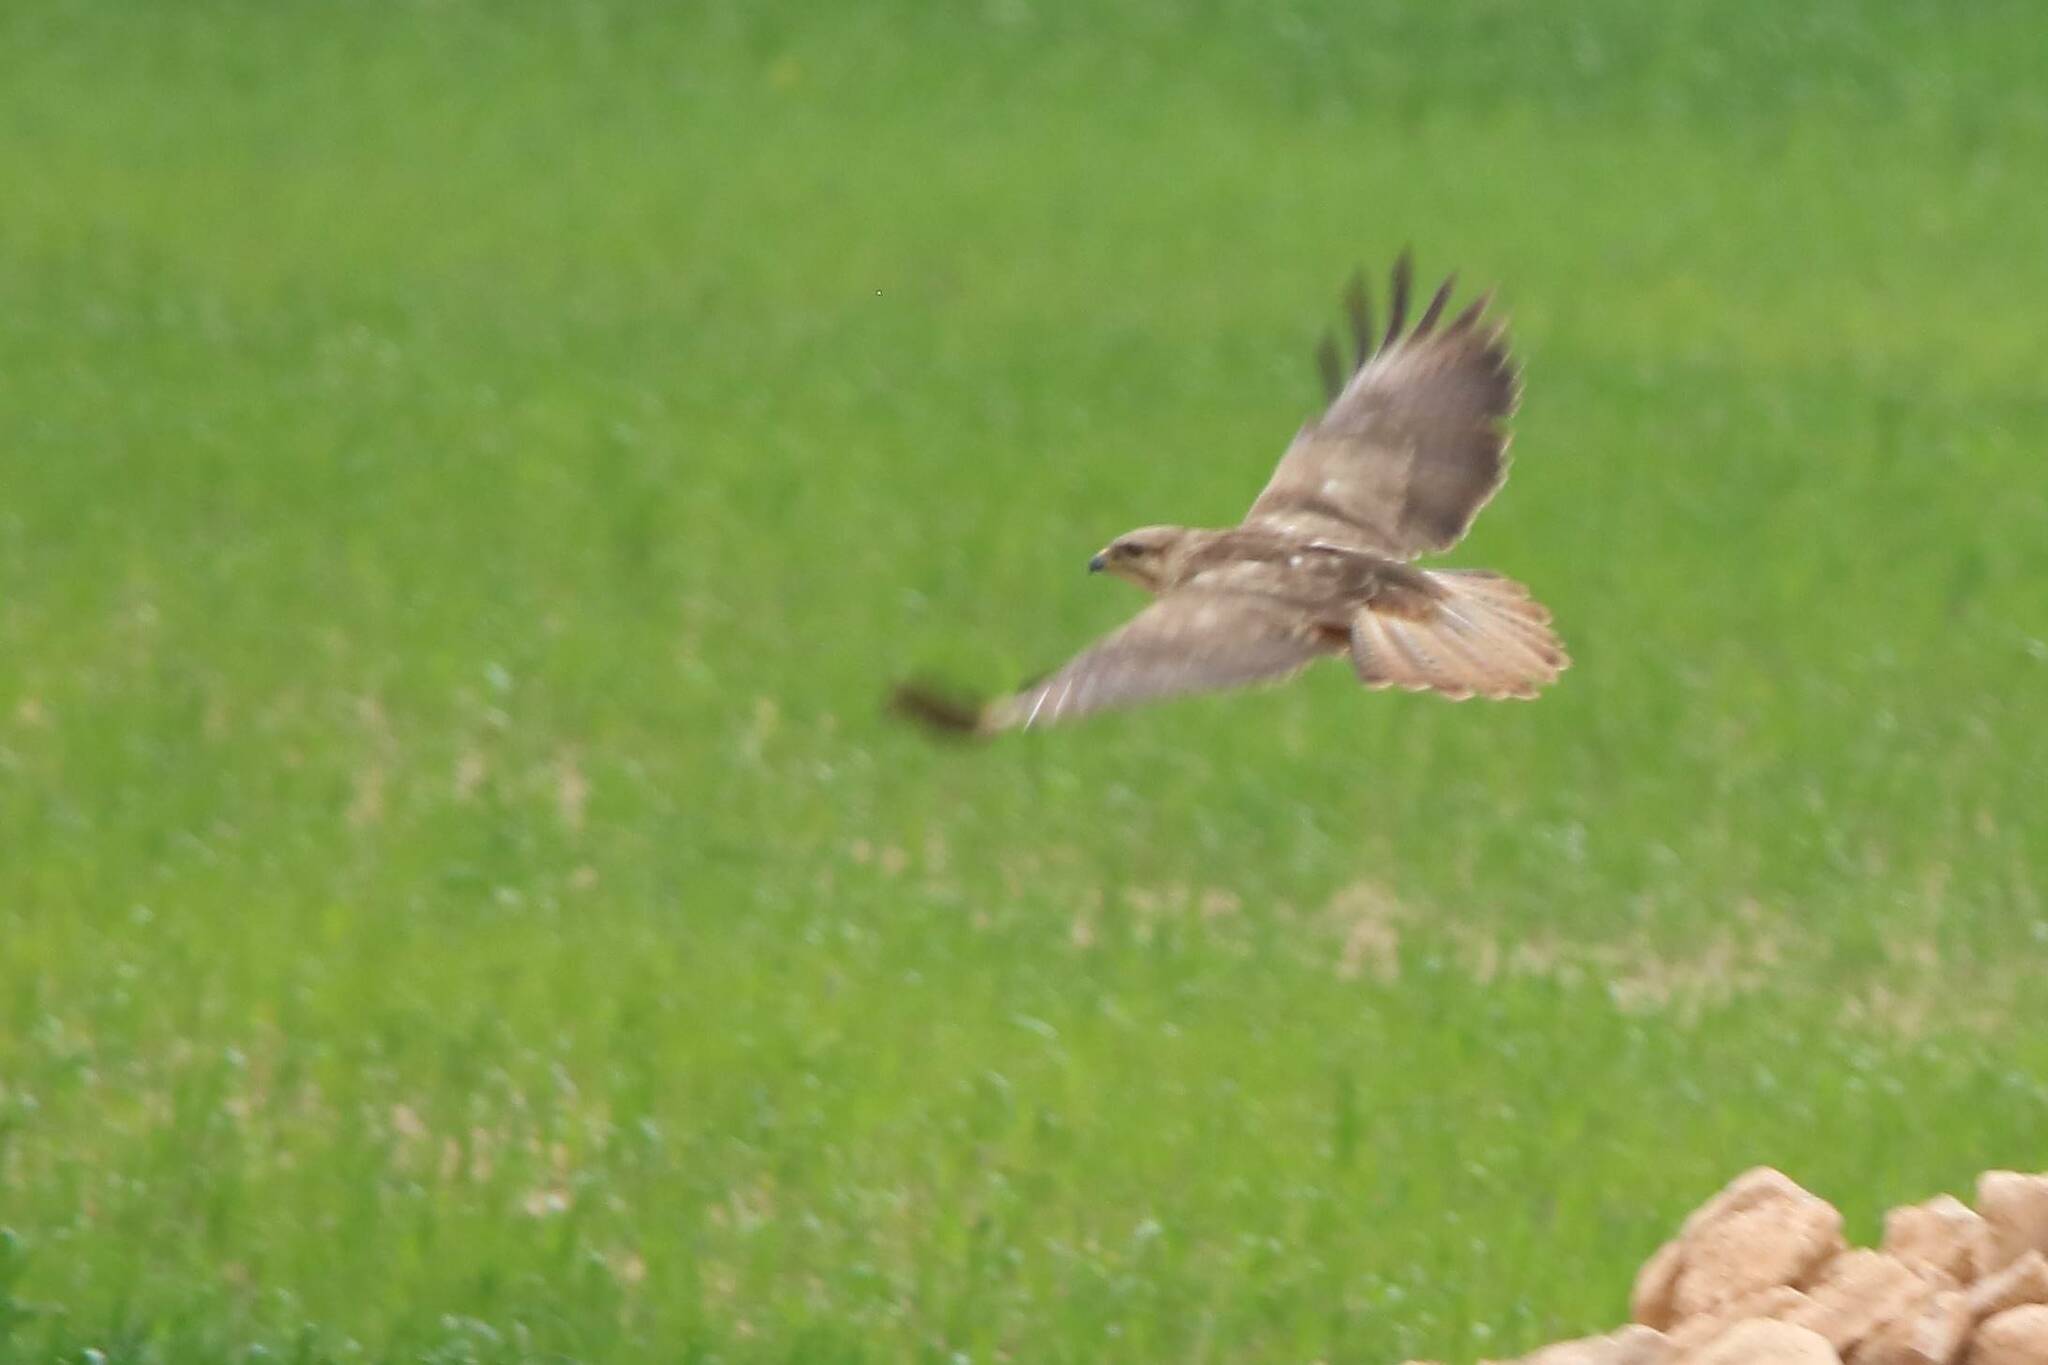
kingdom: Animalia
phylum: Chordata
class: Aves
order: Accipitriformes
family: Accipitridae
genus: Buteo
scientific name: Buteo buteo
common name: Common buzzard
